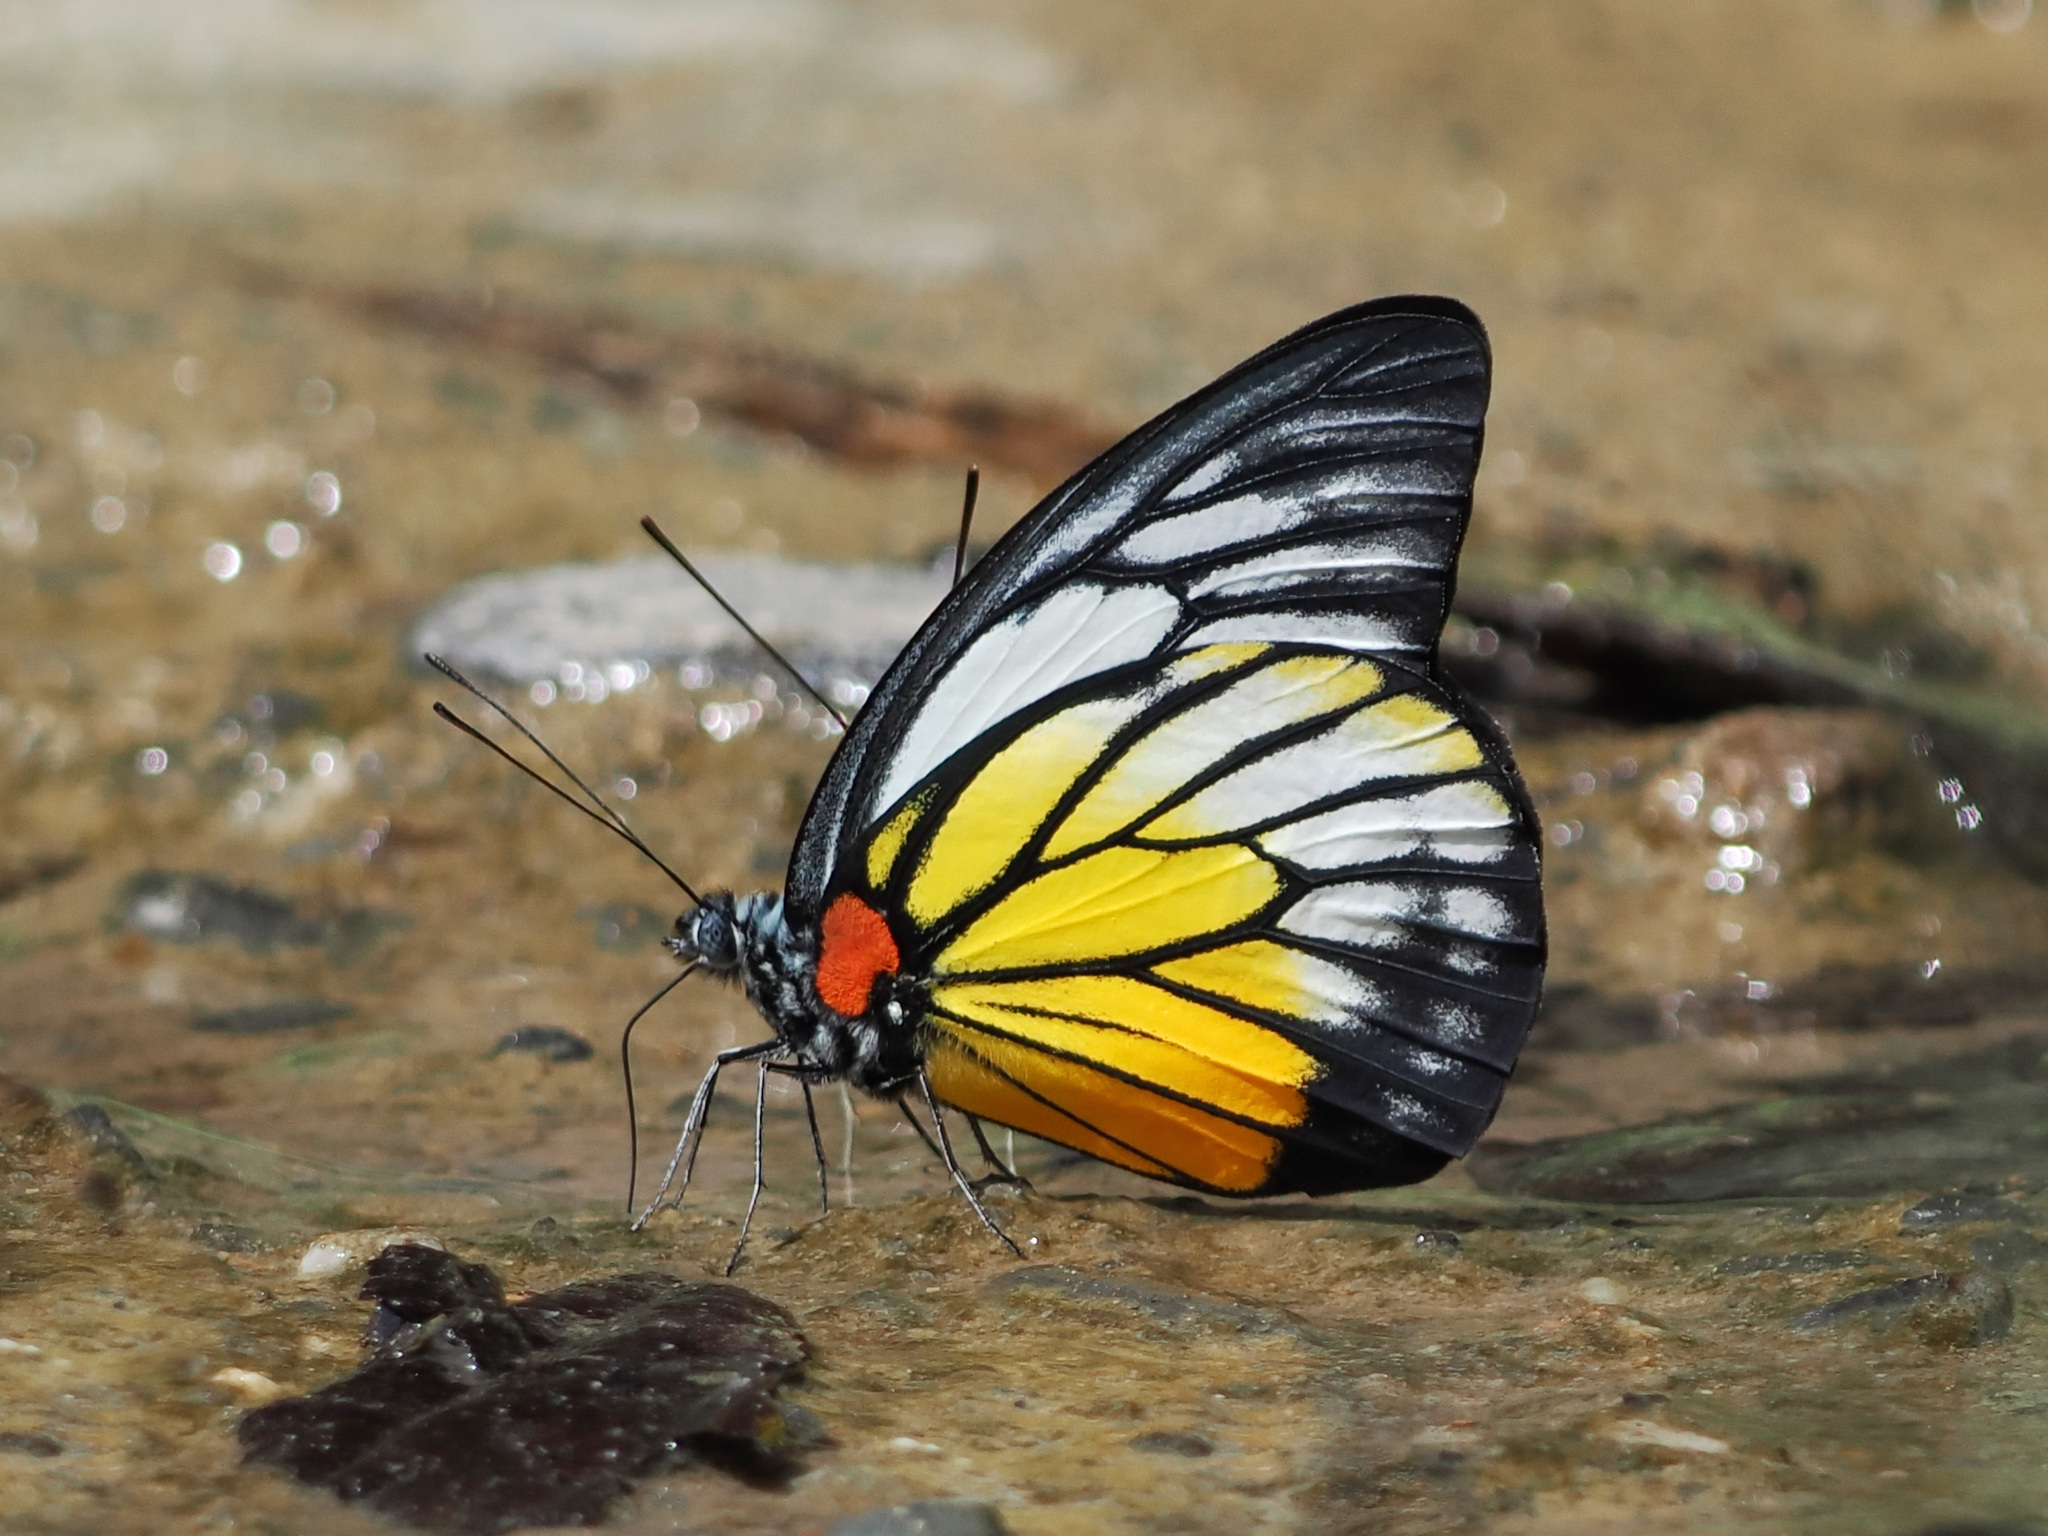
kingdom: Animalia
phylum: Arthropoda
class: Insecta
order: Lepidoptera
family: Pieridae
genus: Prioneris
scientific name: Prioneris philonome
